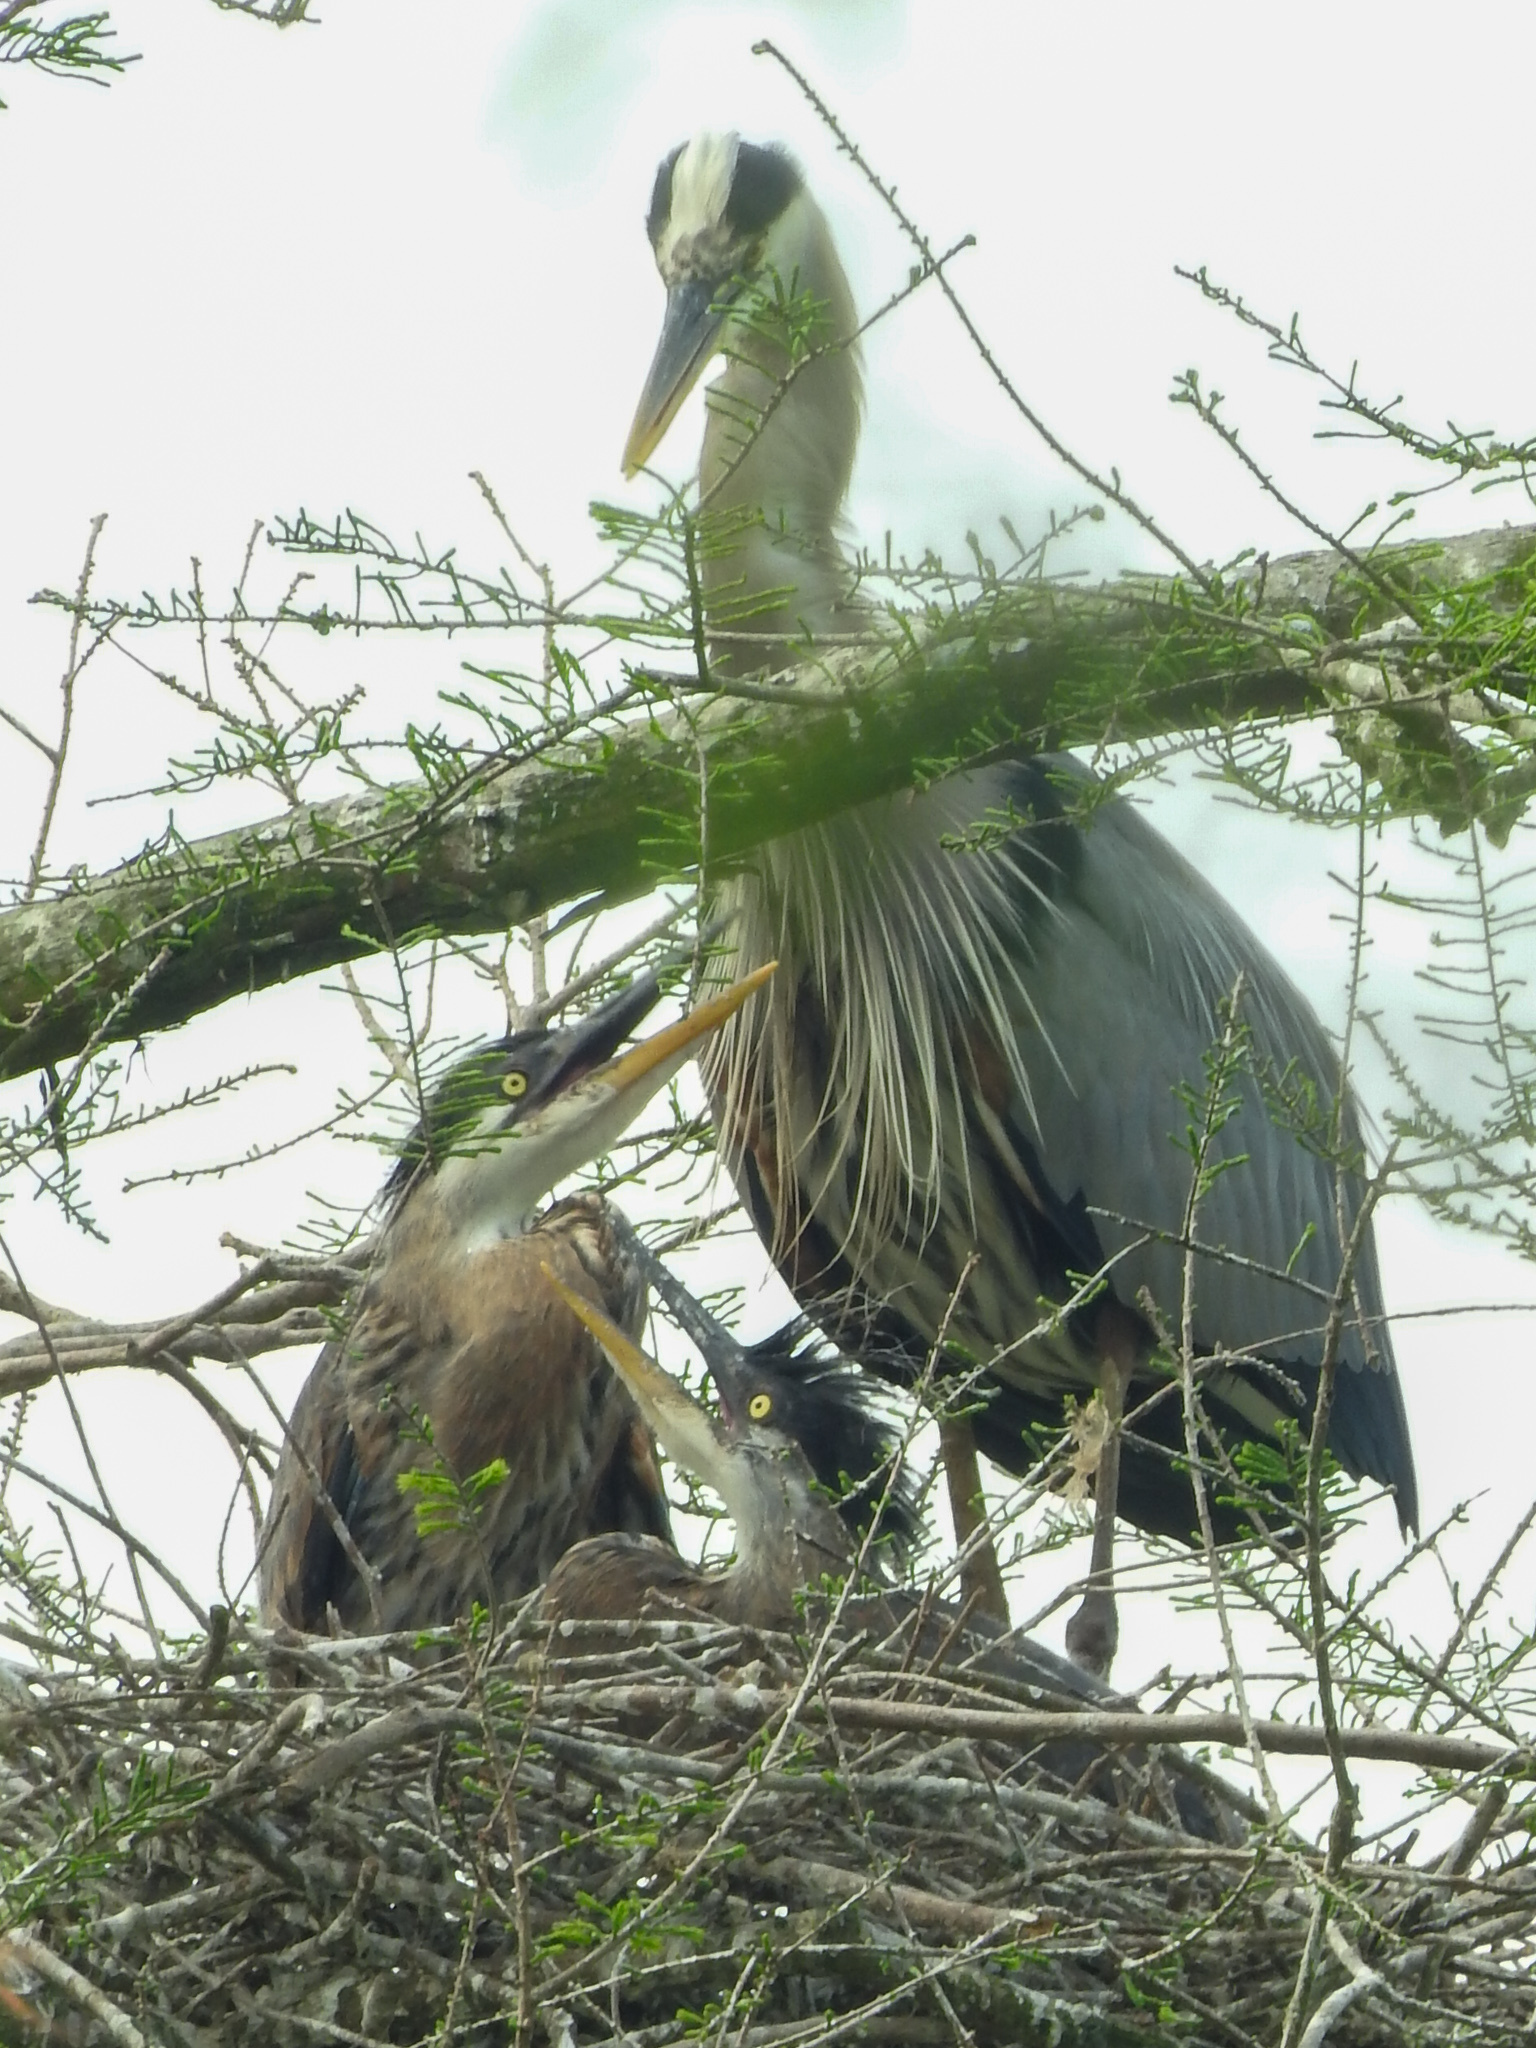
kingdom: Animalia
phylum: Chordata
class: Aves
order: Pelecaniformes
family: Ardeidae
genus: Ardea
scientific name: Ardea herodias
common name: Great blue heron
